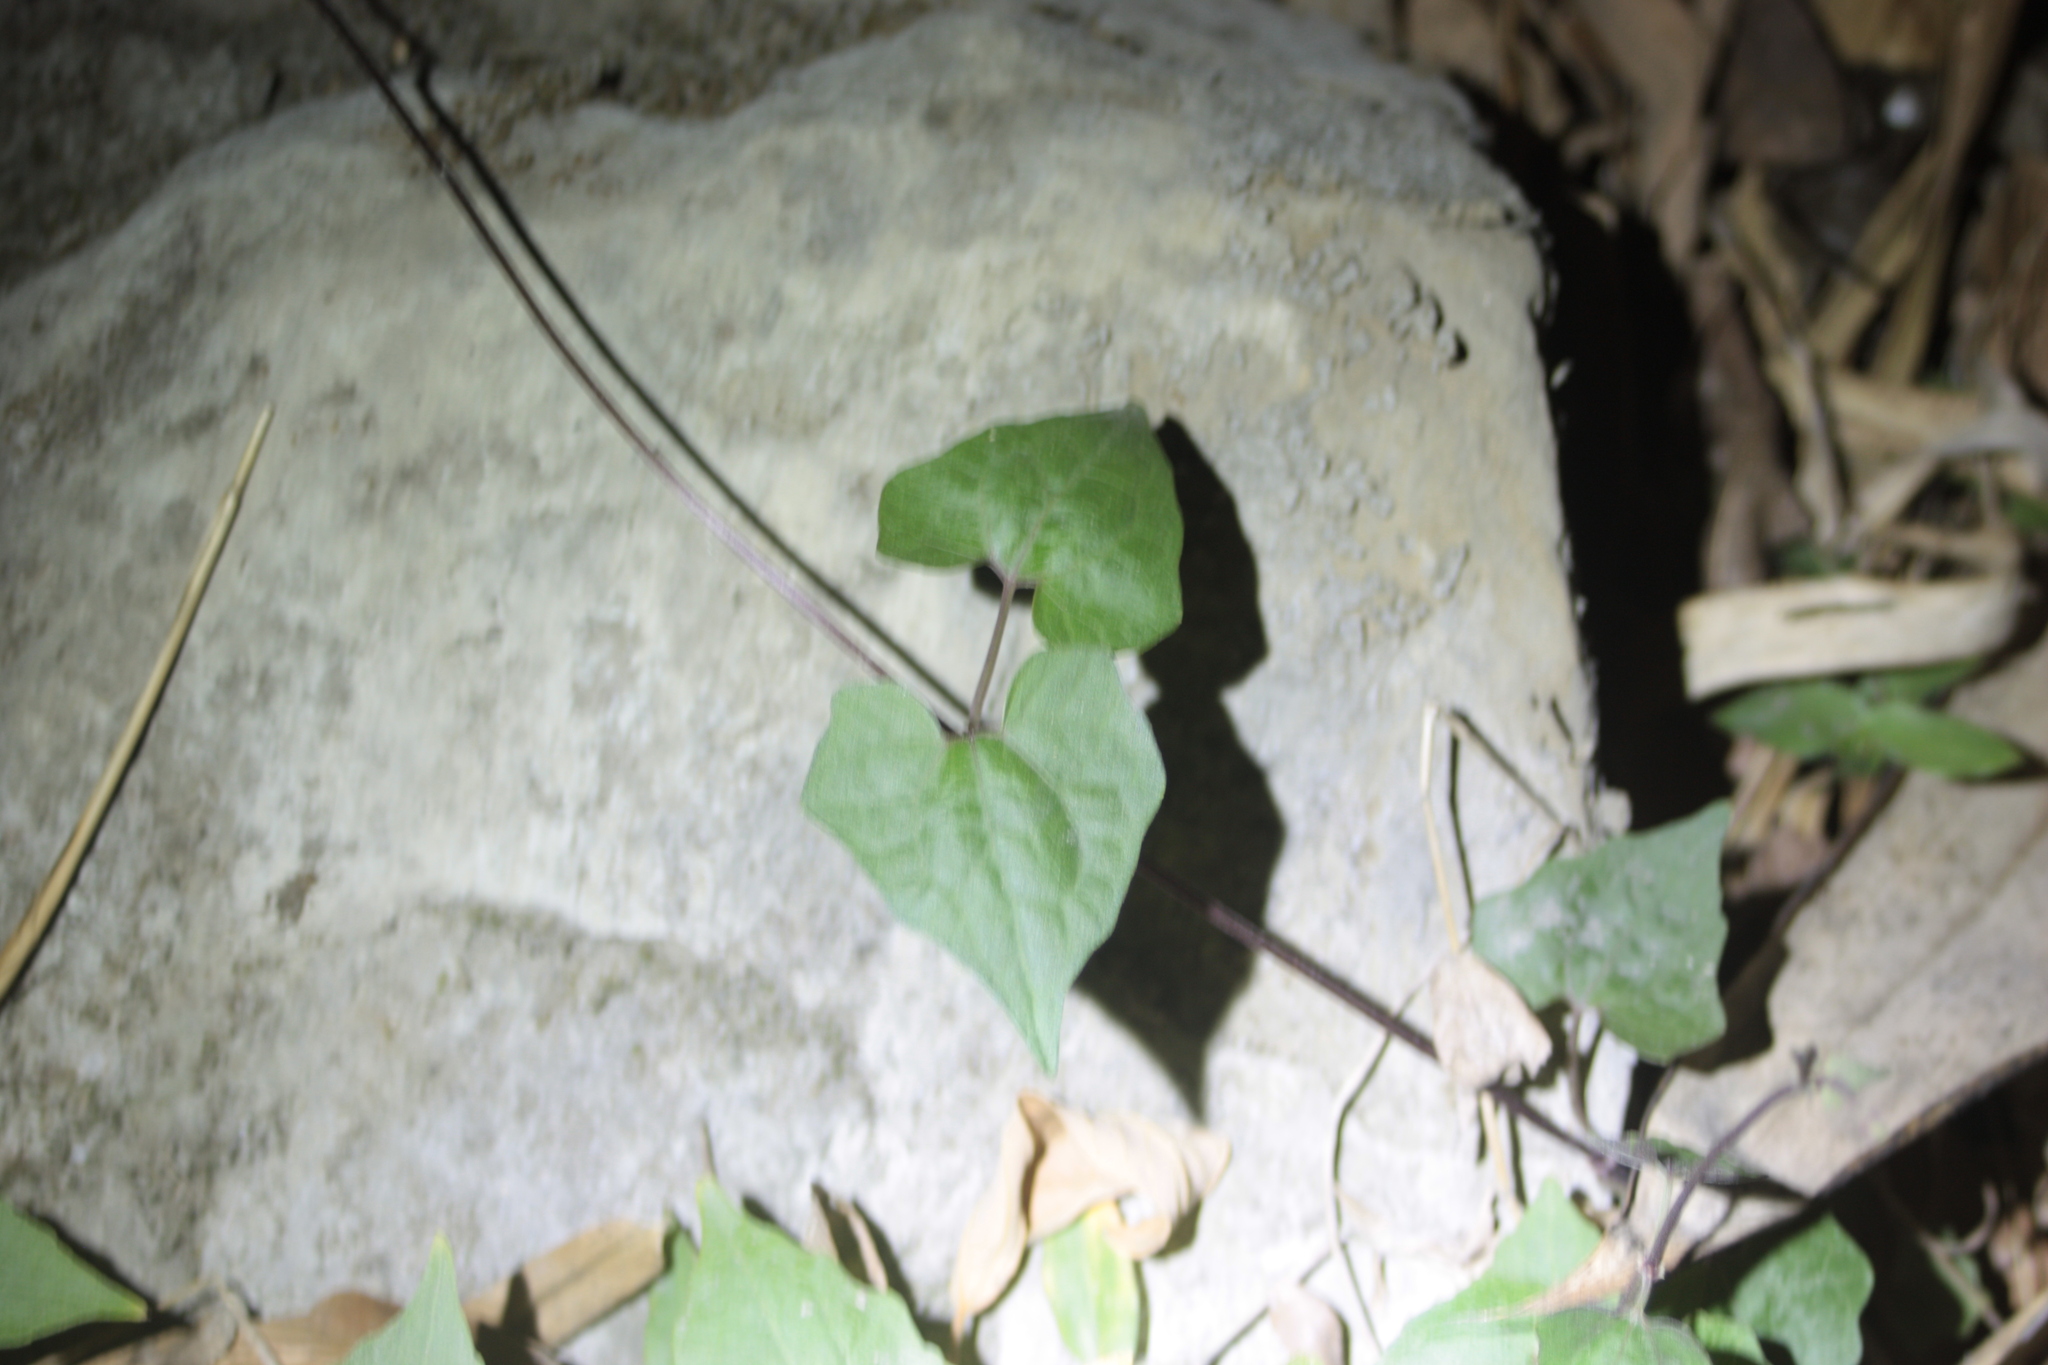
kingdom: Plantae
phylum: Tracheophyta
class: Magnoliopsida
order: Asterales
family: Asteraceae
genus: Mikania
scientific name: Mikania micrantha
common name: Mile-a-minute
